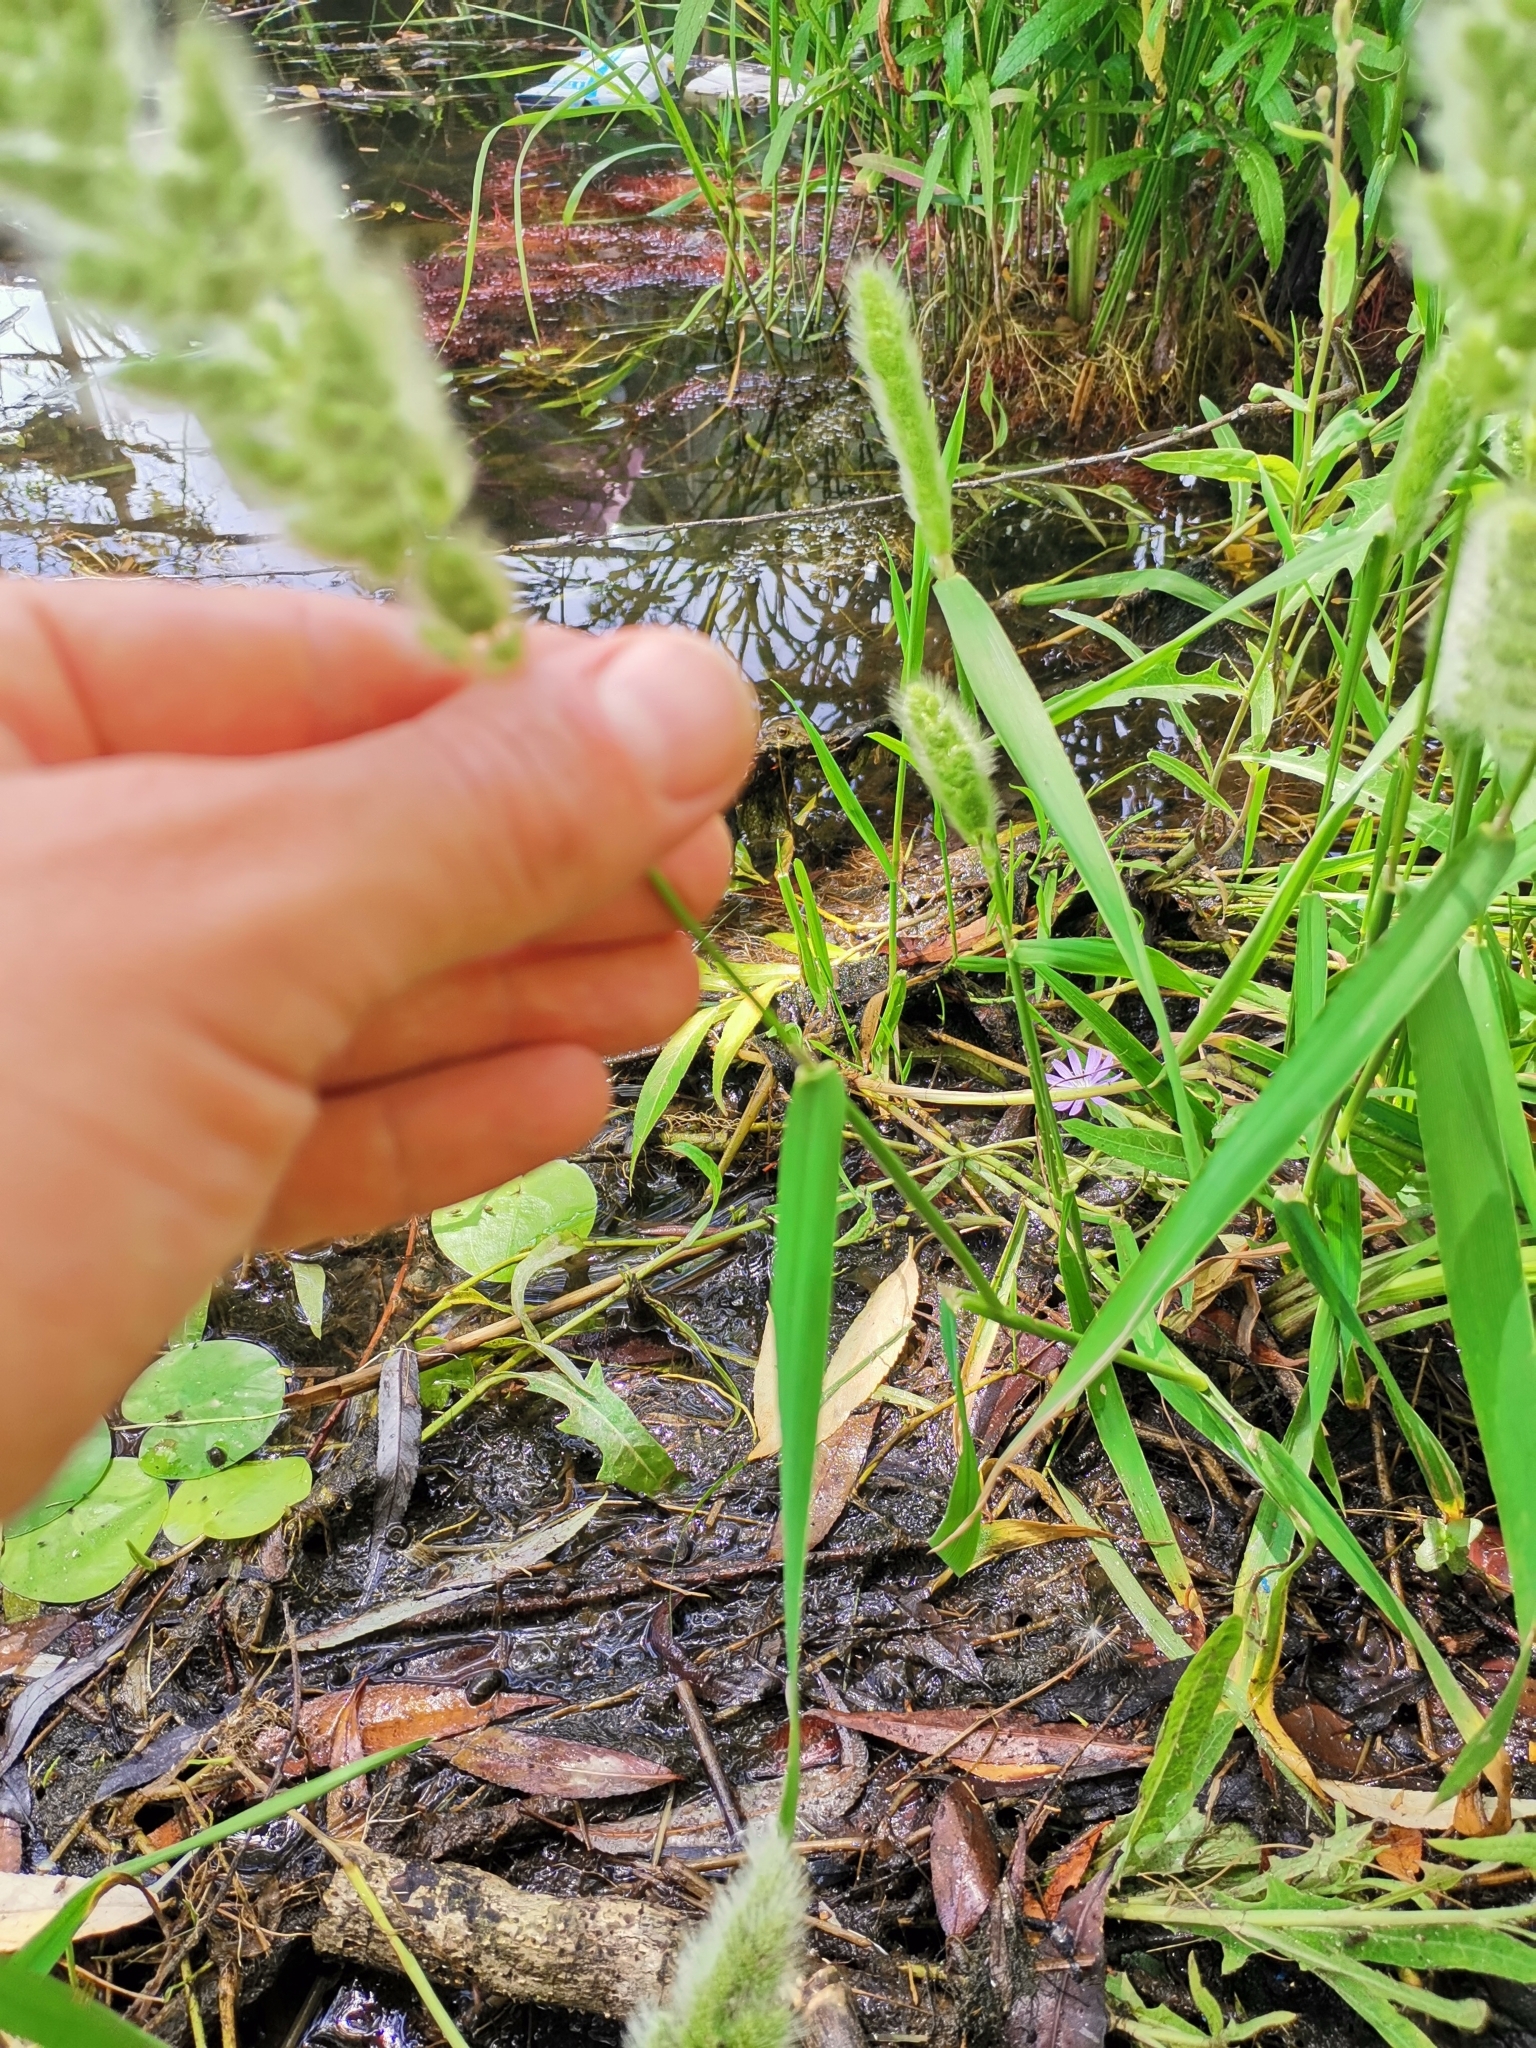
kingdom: Plantae
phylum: Tracheophyta
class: Liliopsida
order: Poales
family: Poaceae
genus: Polypogon
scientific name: Polypogon monspeliensis
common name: Annual rabbitsfoot grass
